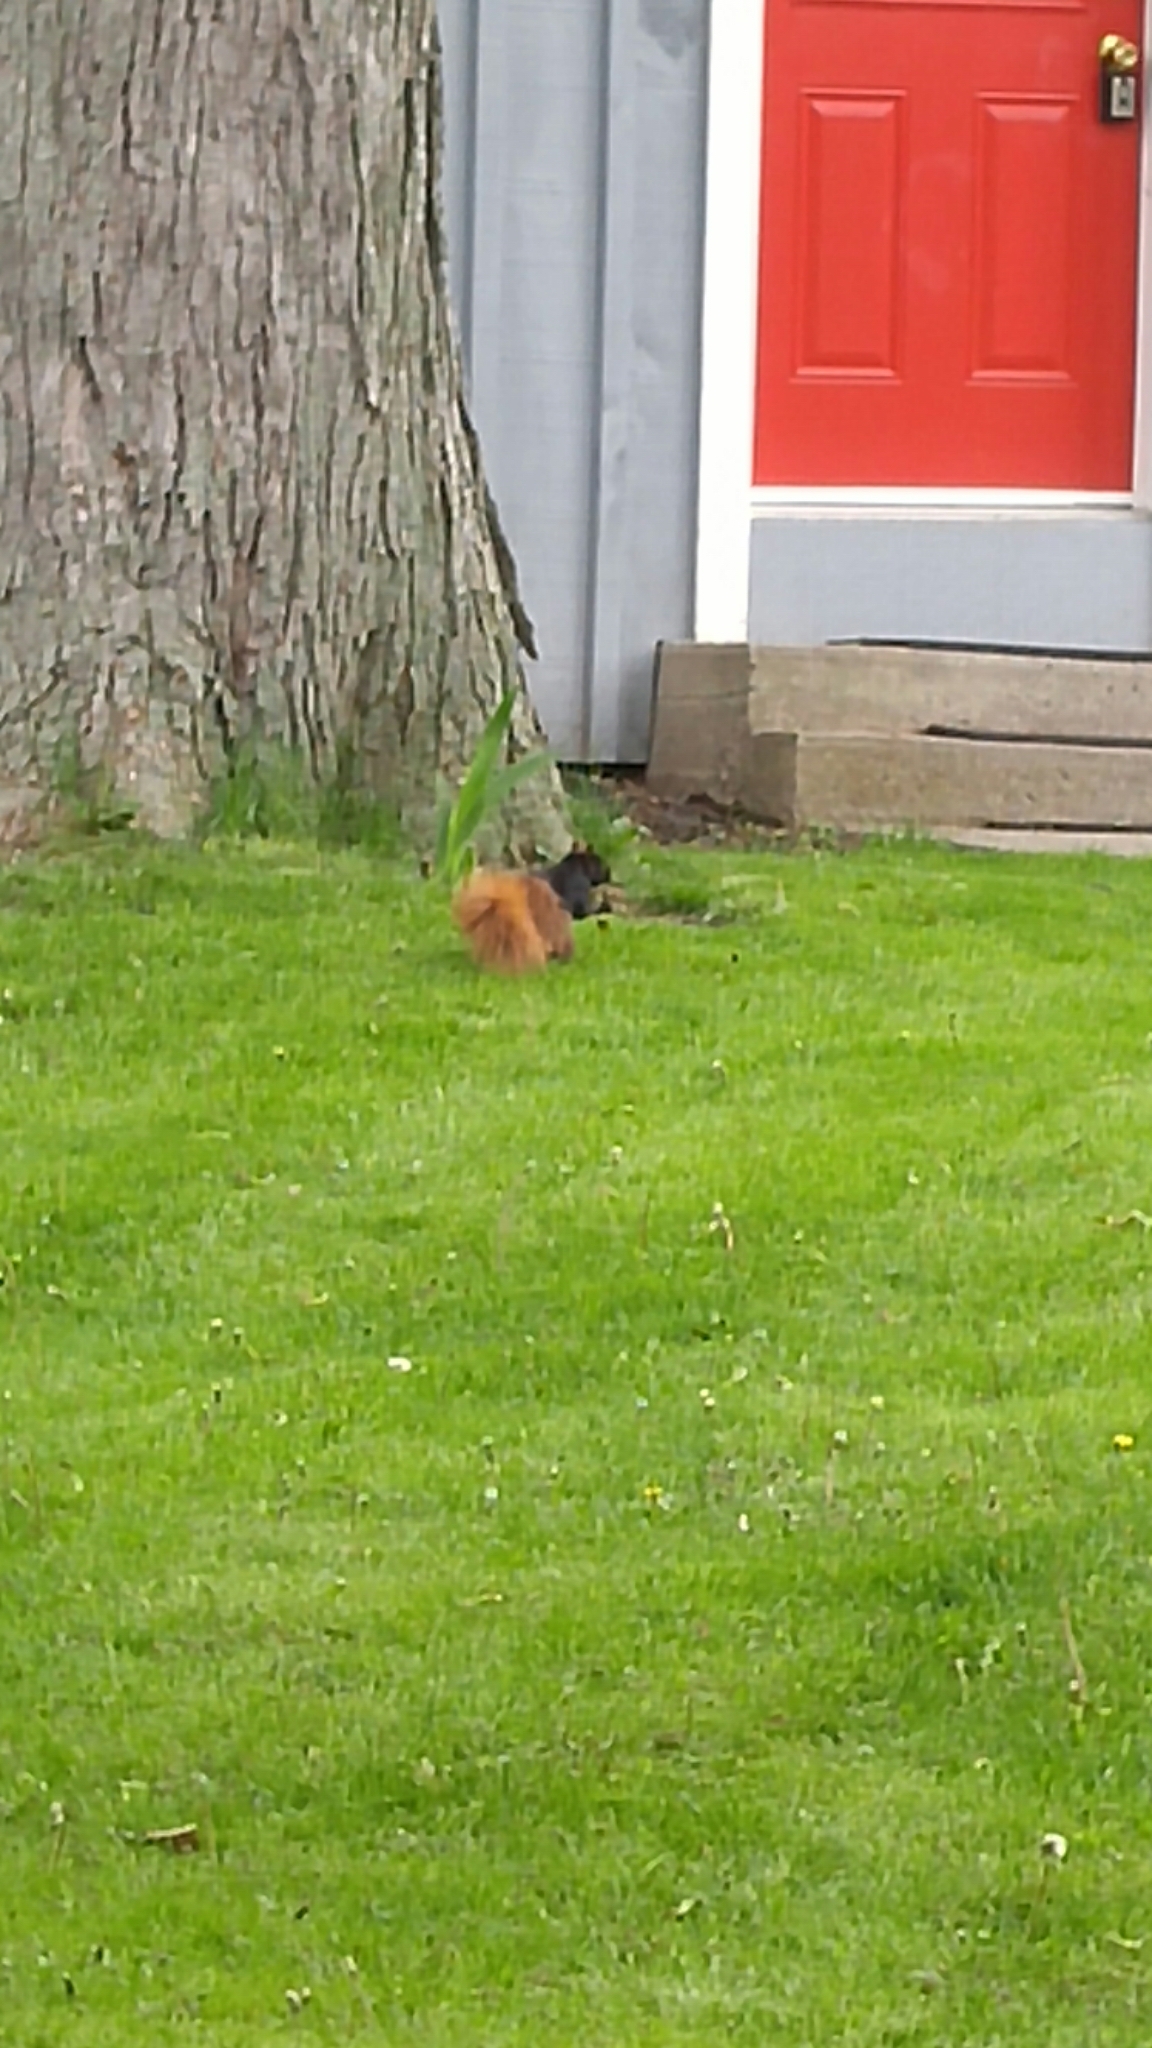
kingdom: Animalia
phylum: Chordata
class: Mammalia
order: Rodentia
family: Sciuridae
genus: Sciurus
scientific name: Sciurus carolinensis
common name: Eastern gray squirrel
